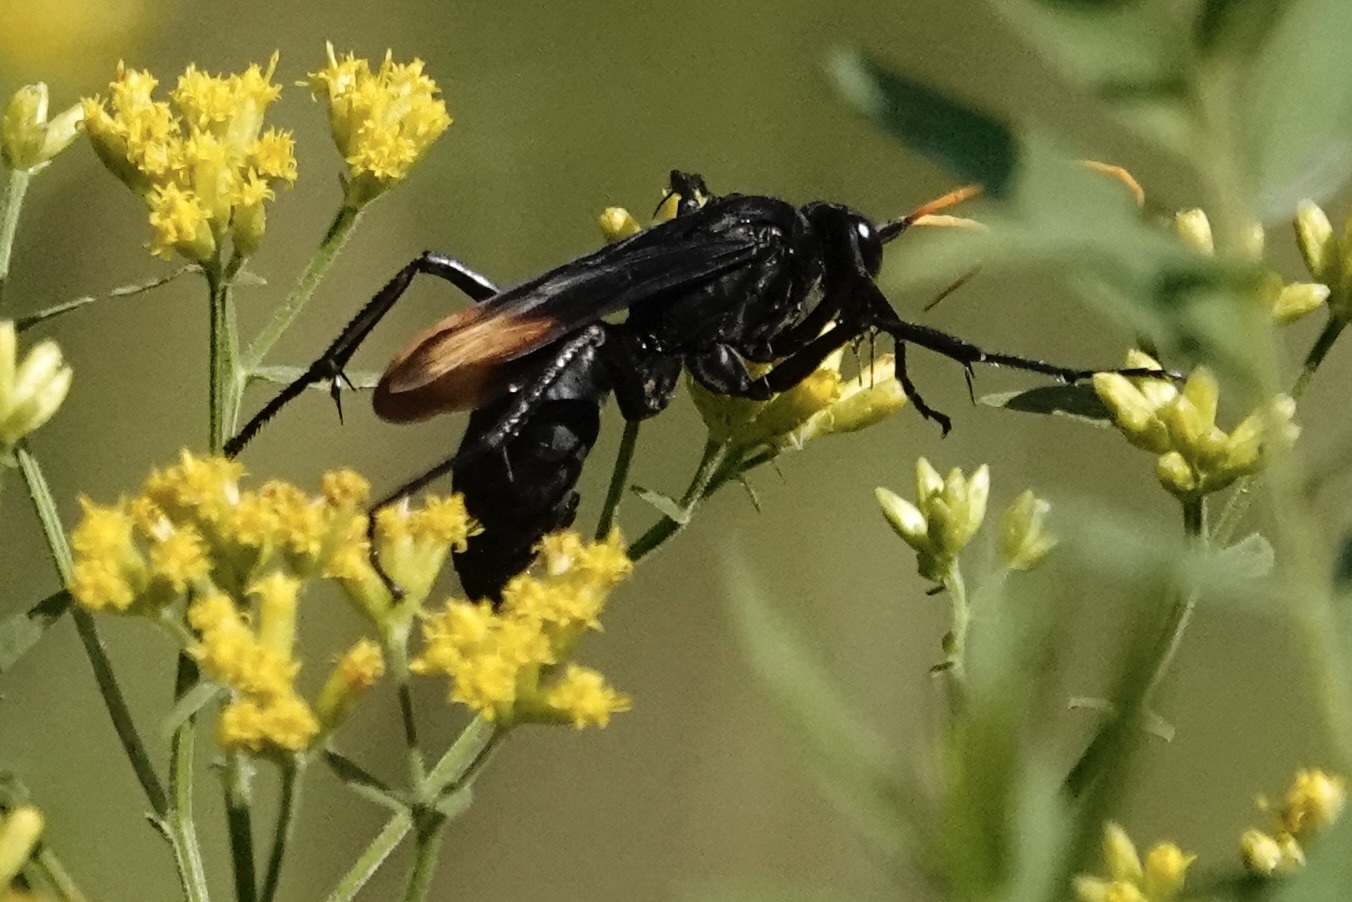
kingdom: Animalia
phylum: Arthropoda
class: Insecta
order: Hymenoptera
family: Pompilidae
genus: Entypus
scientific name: Entypus unifasciatus
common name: Eastern tawny-horned spider wasp
